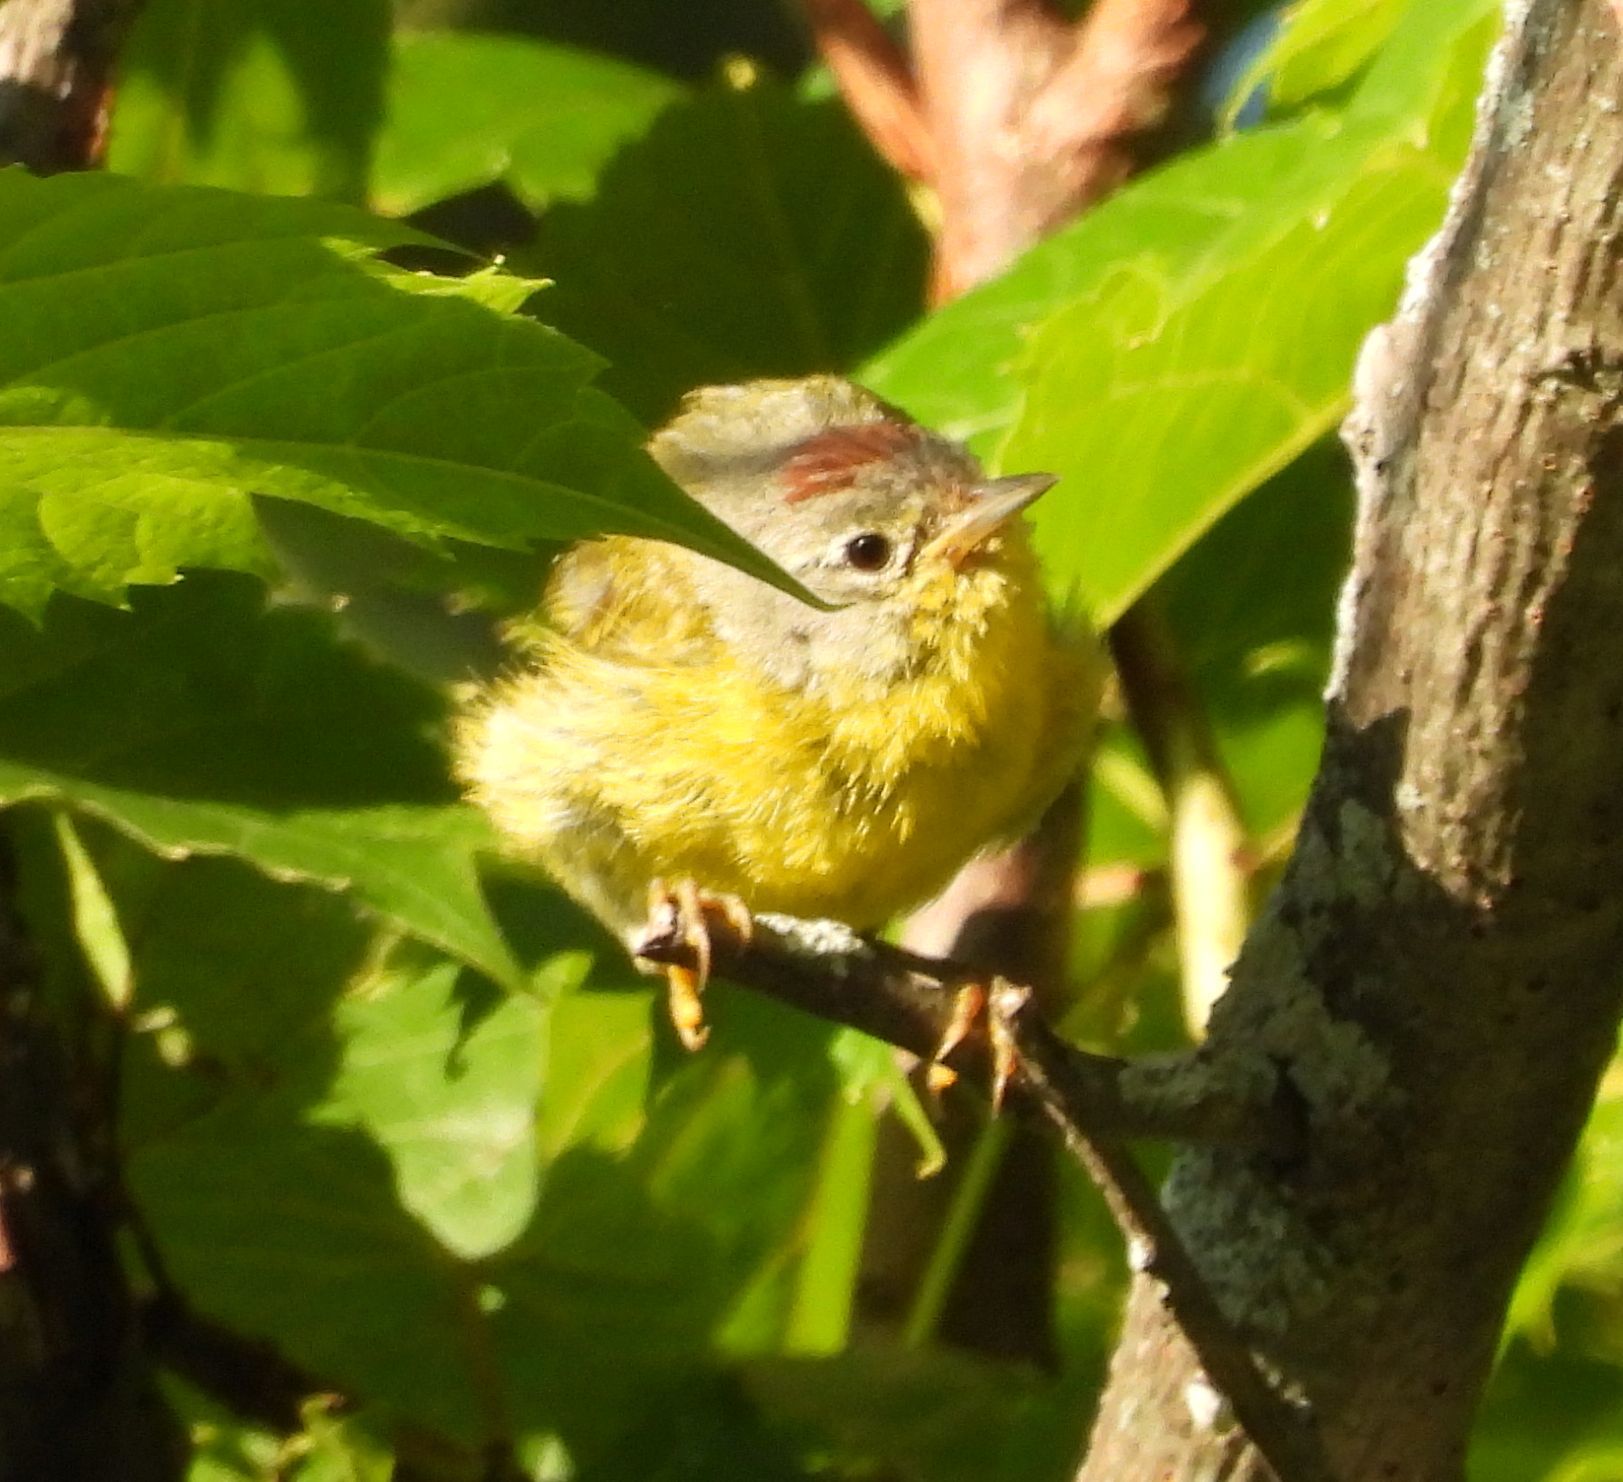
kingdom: Animalia
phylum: Chordata
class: Aves
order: Passeriformes
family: Parulidae
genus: Leiothlypis
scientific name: Leiothlypis ruficapilla
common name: Nashville warbler
